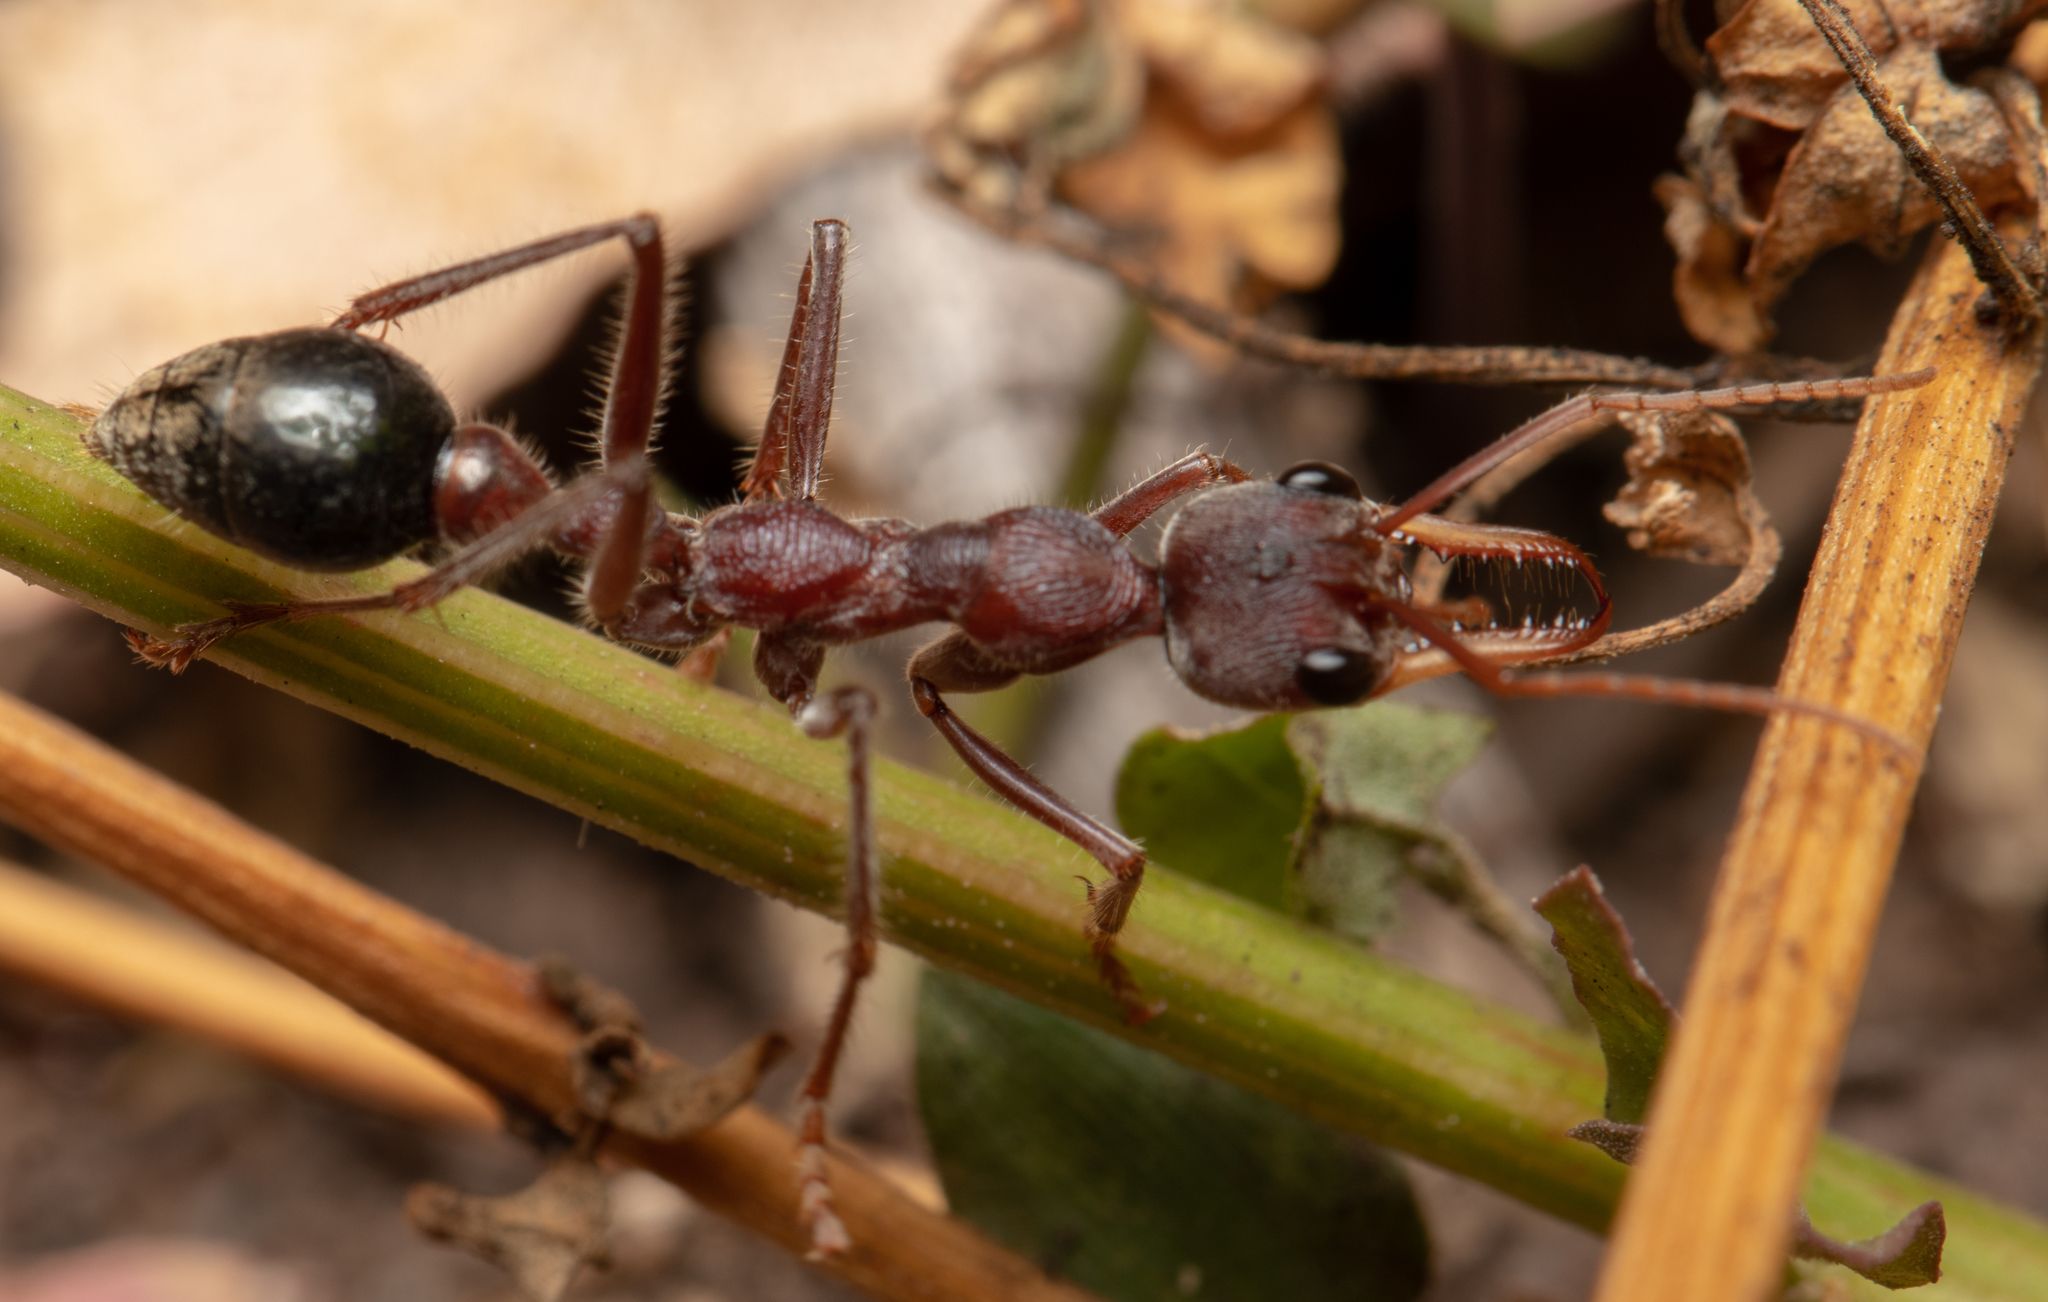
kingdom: Animalia
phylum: Arthropoda
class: Insecta
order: Hymenoptera
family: Formicidae
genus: Myrmecia
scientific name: Myrmecia flavicoma
